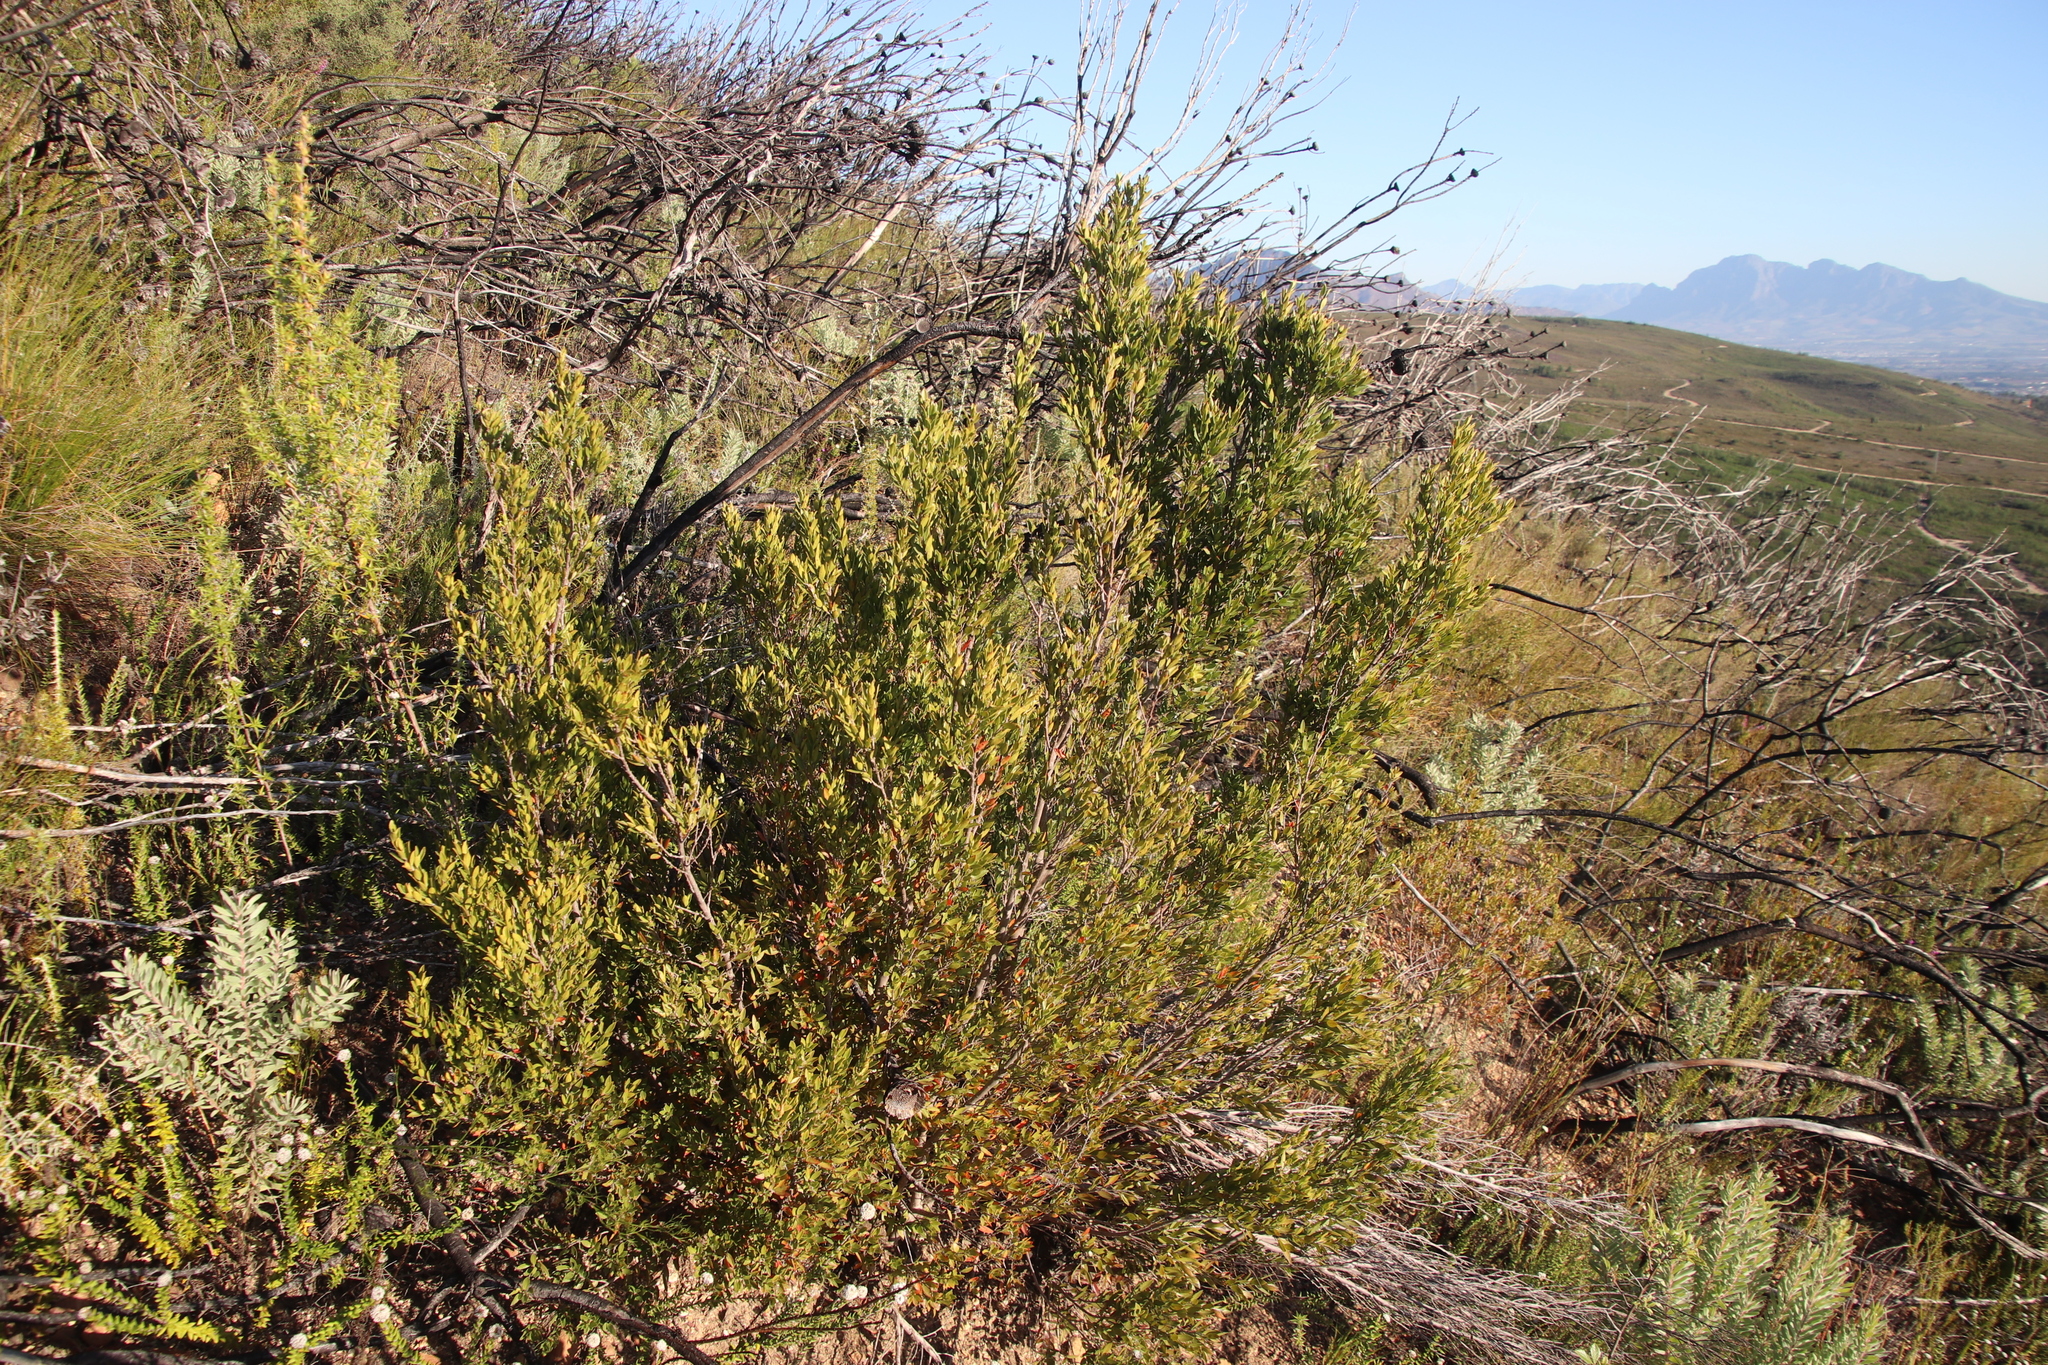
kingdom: Plantae
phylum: Tracheophyta
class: Magnoliopsida
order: Ericales
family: Ebenaceae
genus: Diospyros
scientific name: Diospyros glabra
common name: Fynbos star apple
